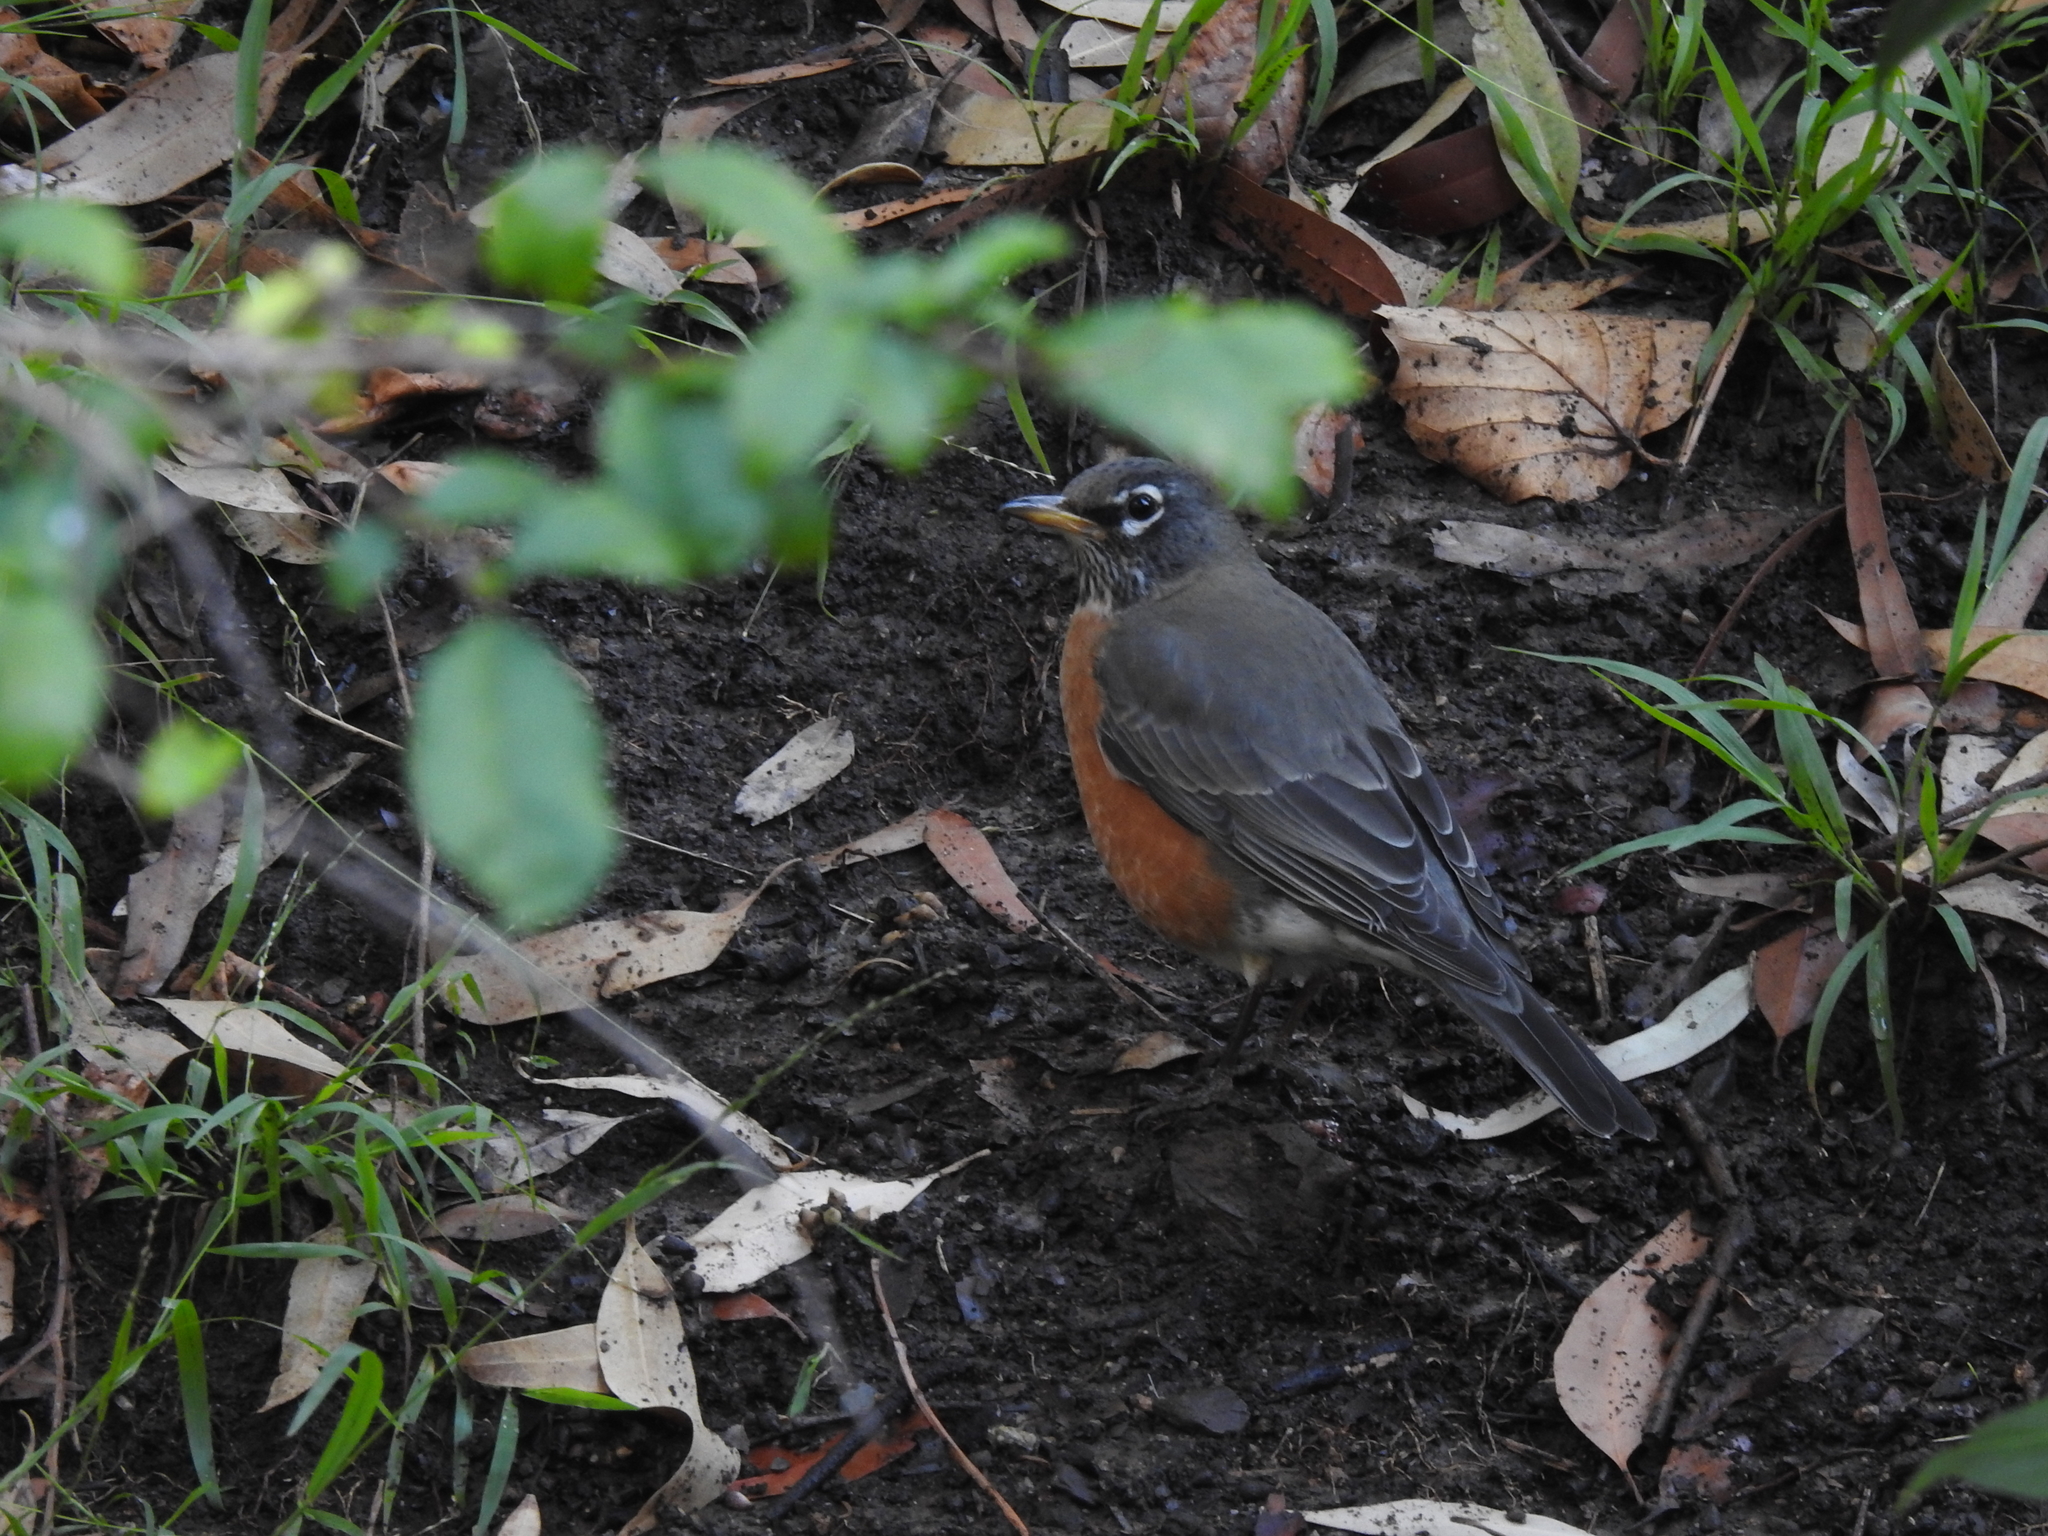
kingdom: Animalia
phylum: Chordata
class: Aves
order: Passeriformes
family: Turdidae
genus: Turdus
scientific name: Turdus migratorius
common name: American robin
